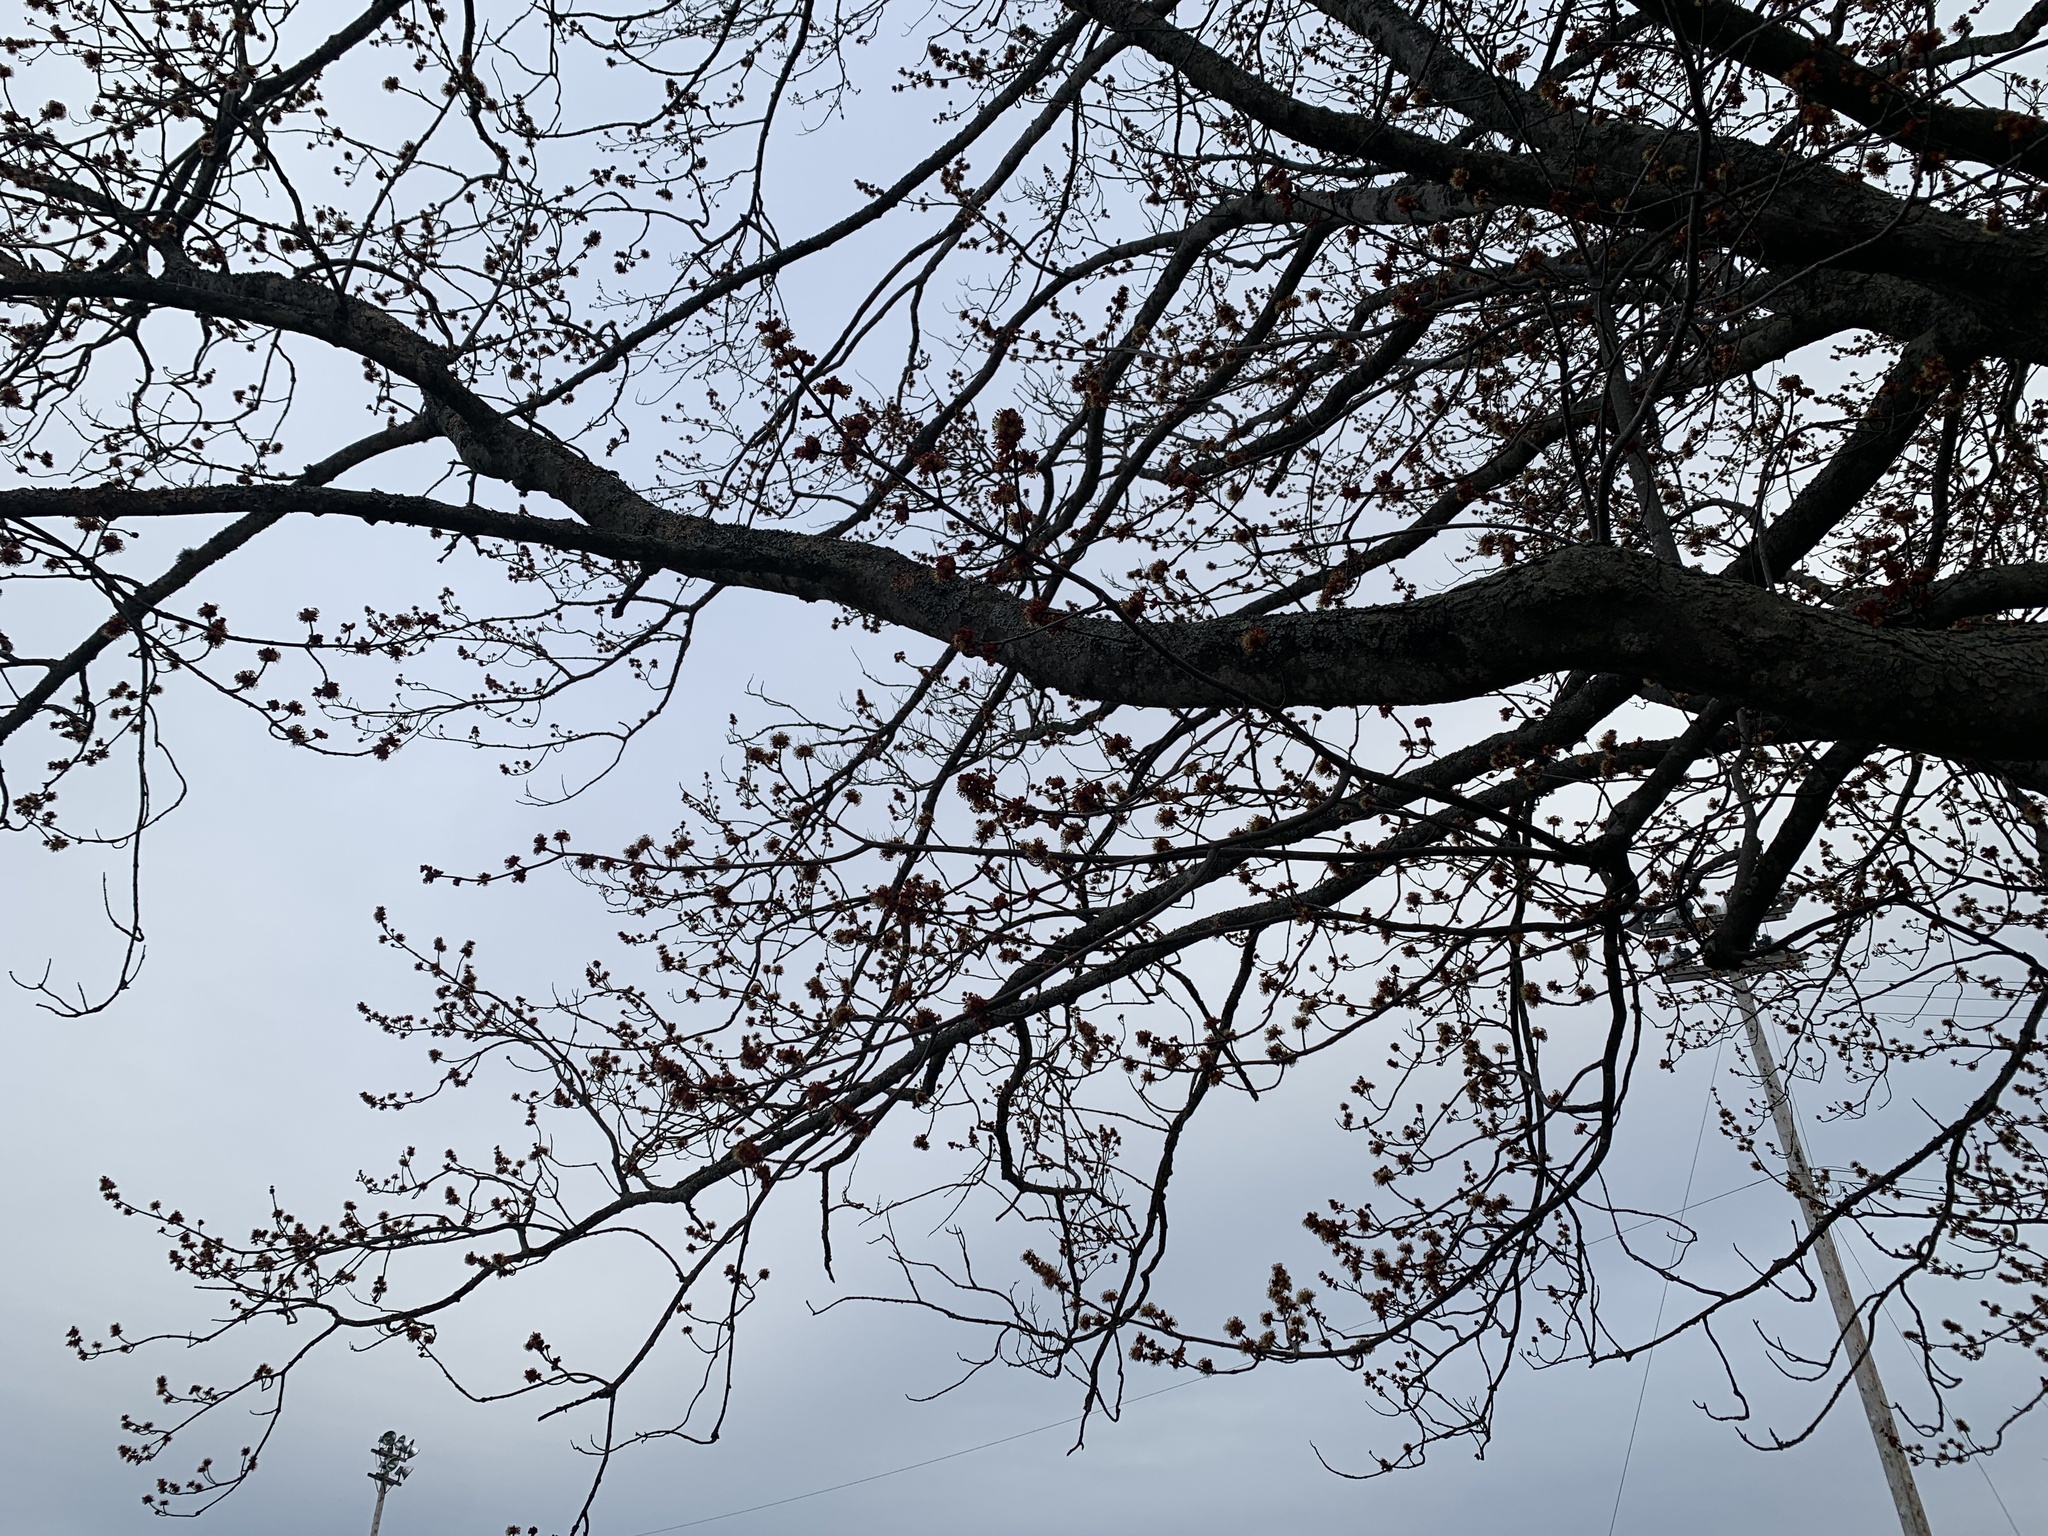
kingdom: Plantae
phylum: Tracheophyta
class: Magnoliopsida
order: Sapindales
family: Sapindaceae
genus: Acer
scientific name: Acer rubrum
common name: Red maple
